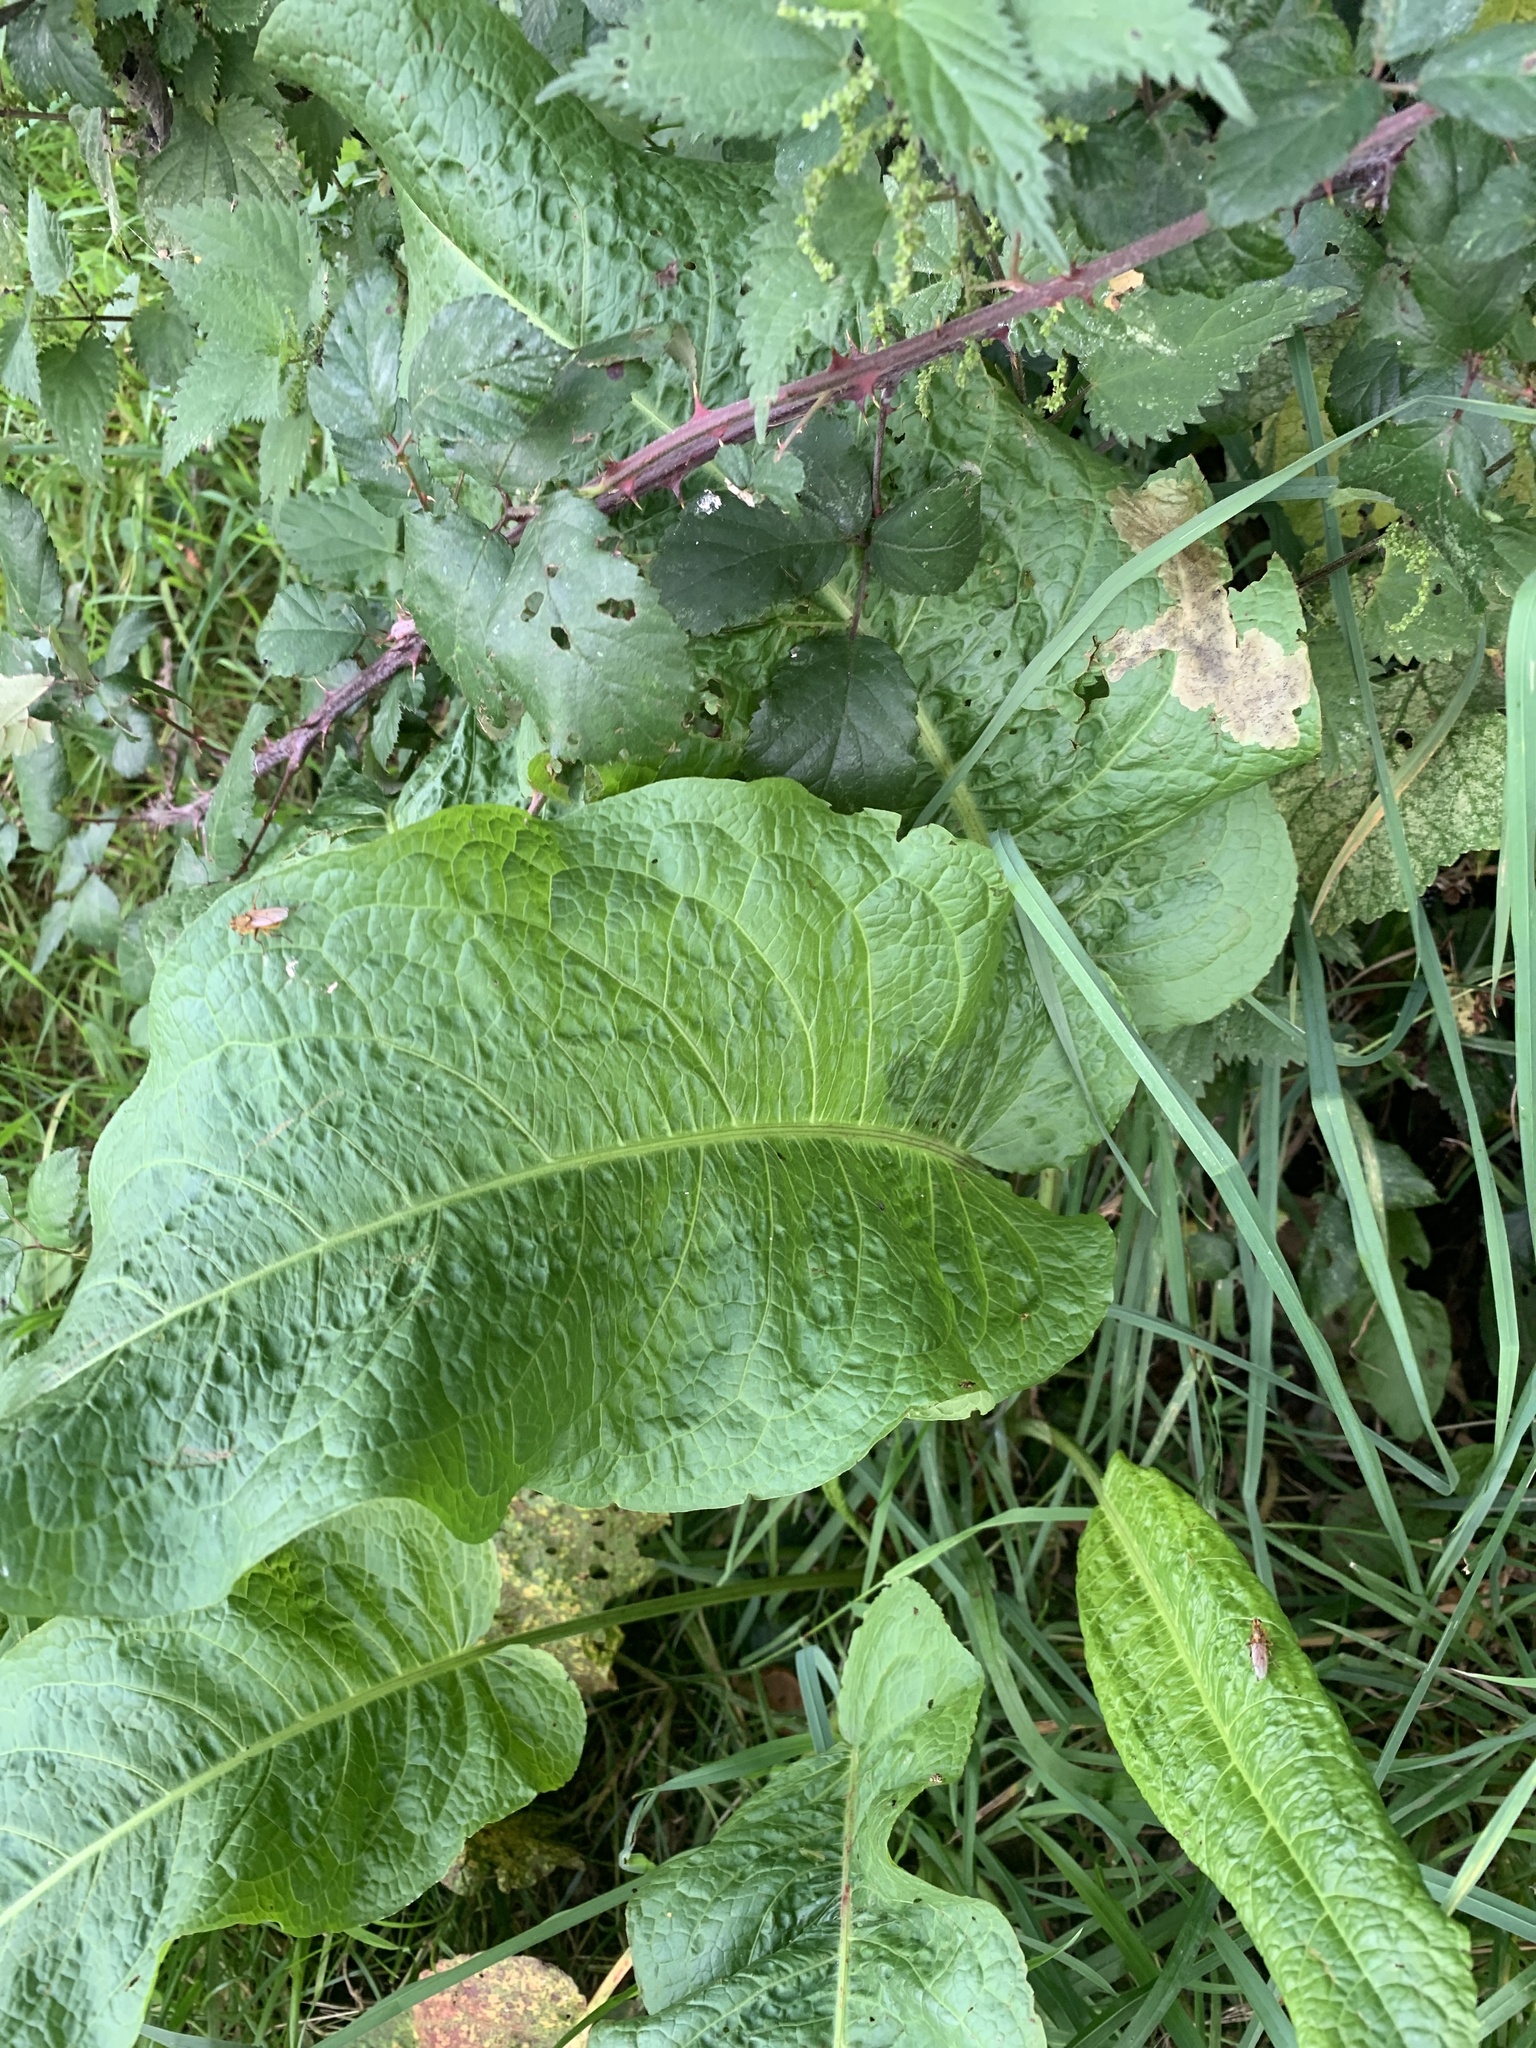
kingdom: Plantae
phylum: Tracheophyta
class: Magnoliopsida
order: Caryophyllales
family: Polygonaceae
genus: Rumex
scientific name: Rumex obtusifolius
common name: Bitter dock
